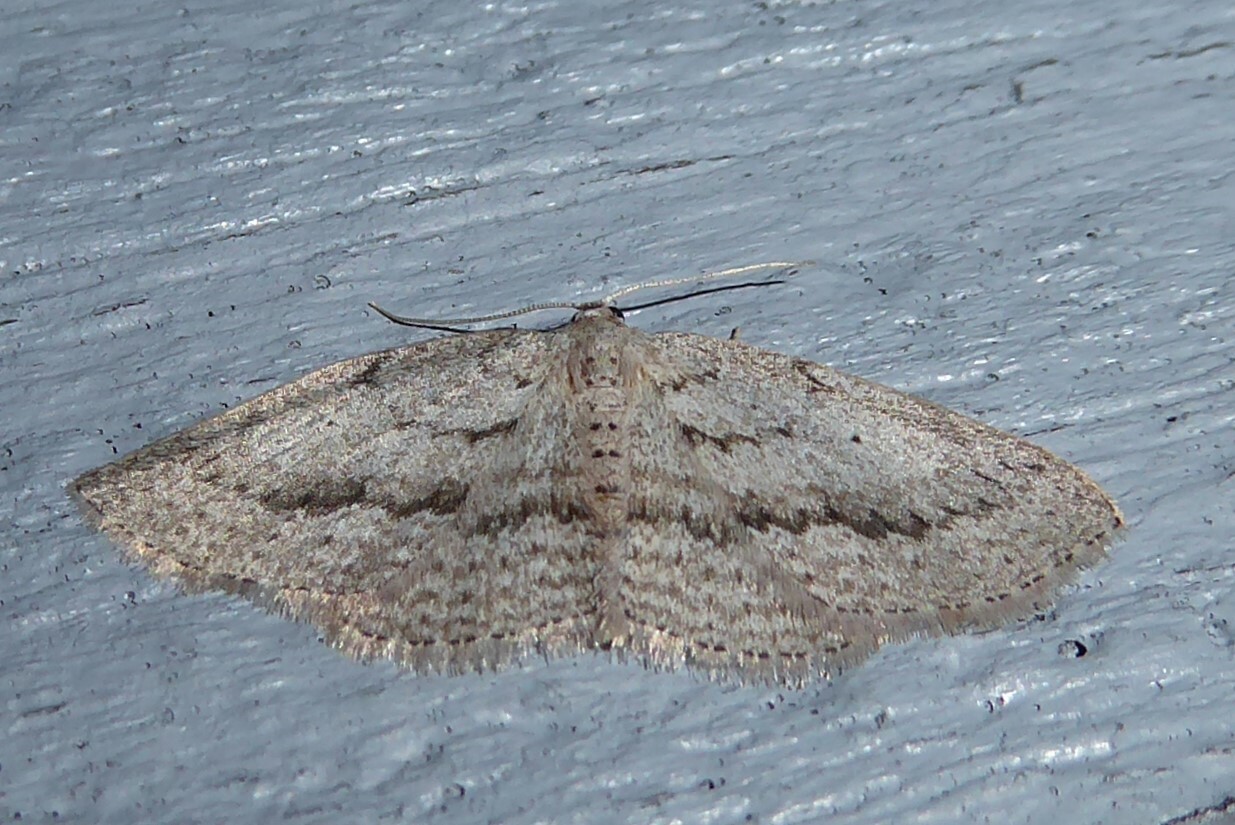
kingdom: Animalia
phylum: Arthropoda
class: Insecta
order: Lepidoptera
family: Geometridae
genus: Poecilasthena
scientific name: Poecilasthena schistaria
